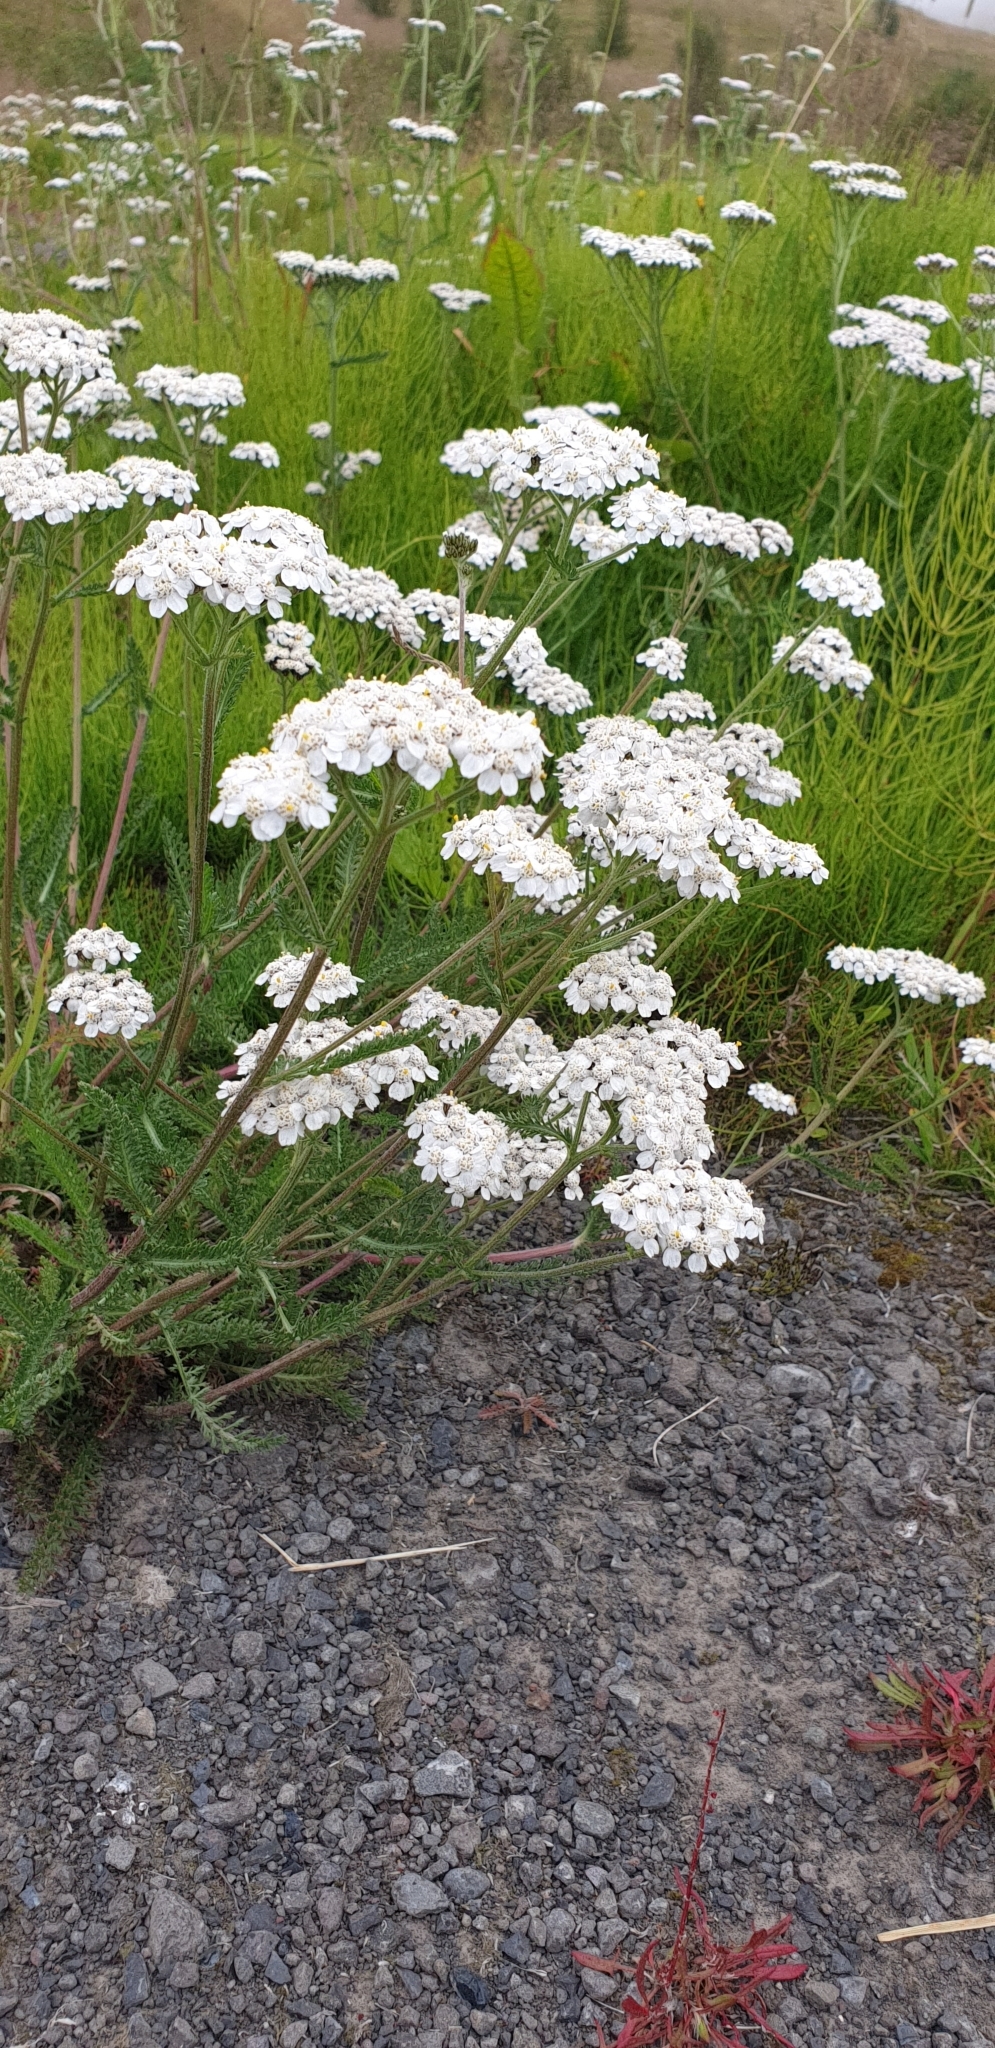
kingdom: Plantae
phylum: Tracheophyta
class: Magnoliopsida
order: Asterales
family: Asteraceae
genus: Achillea
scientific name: Achillea millefolium
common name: Yarrow
